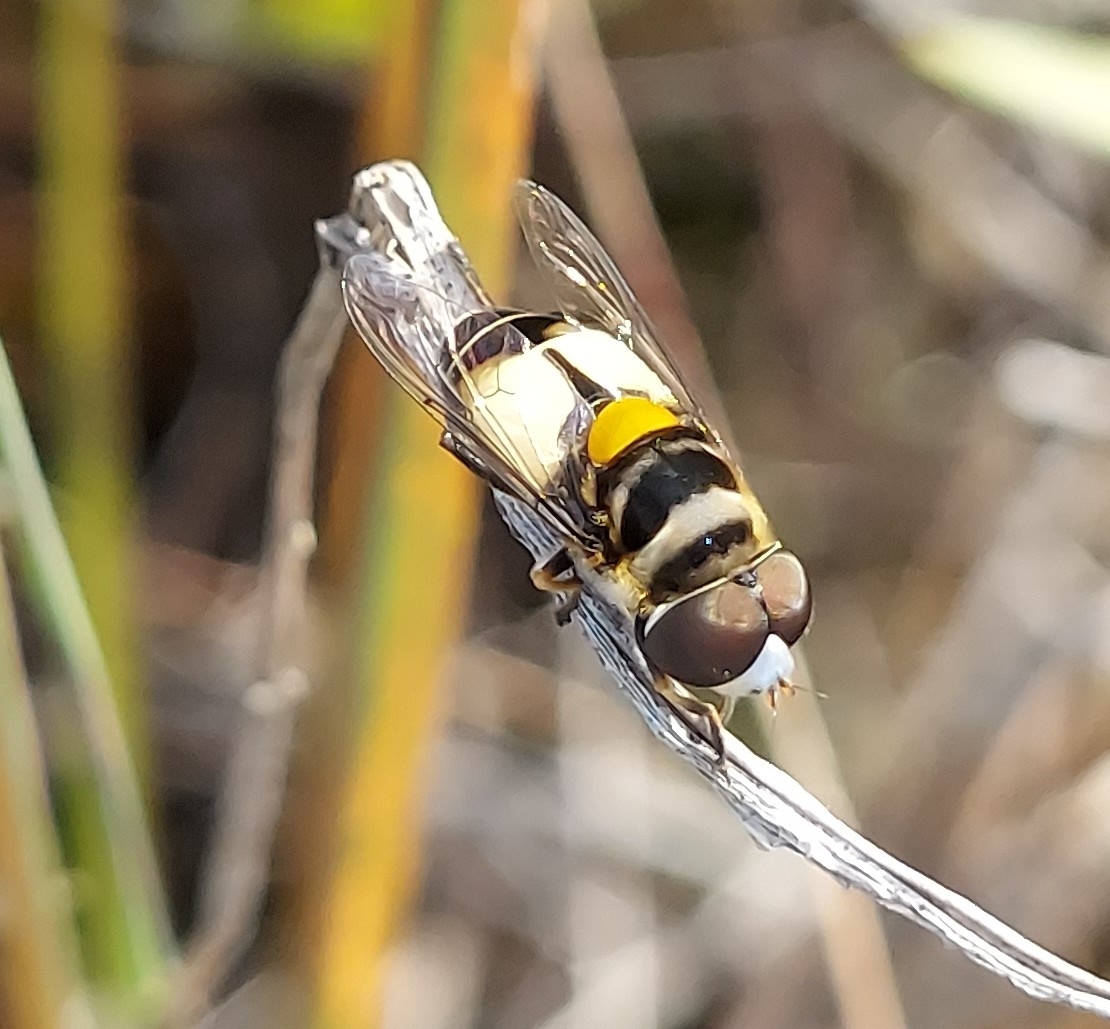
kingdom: Animalia
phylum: Arthropoda
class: Insecta
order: Diptera
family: Syrphidae
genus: Palpada
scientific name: Palpada albifrons
